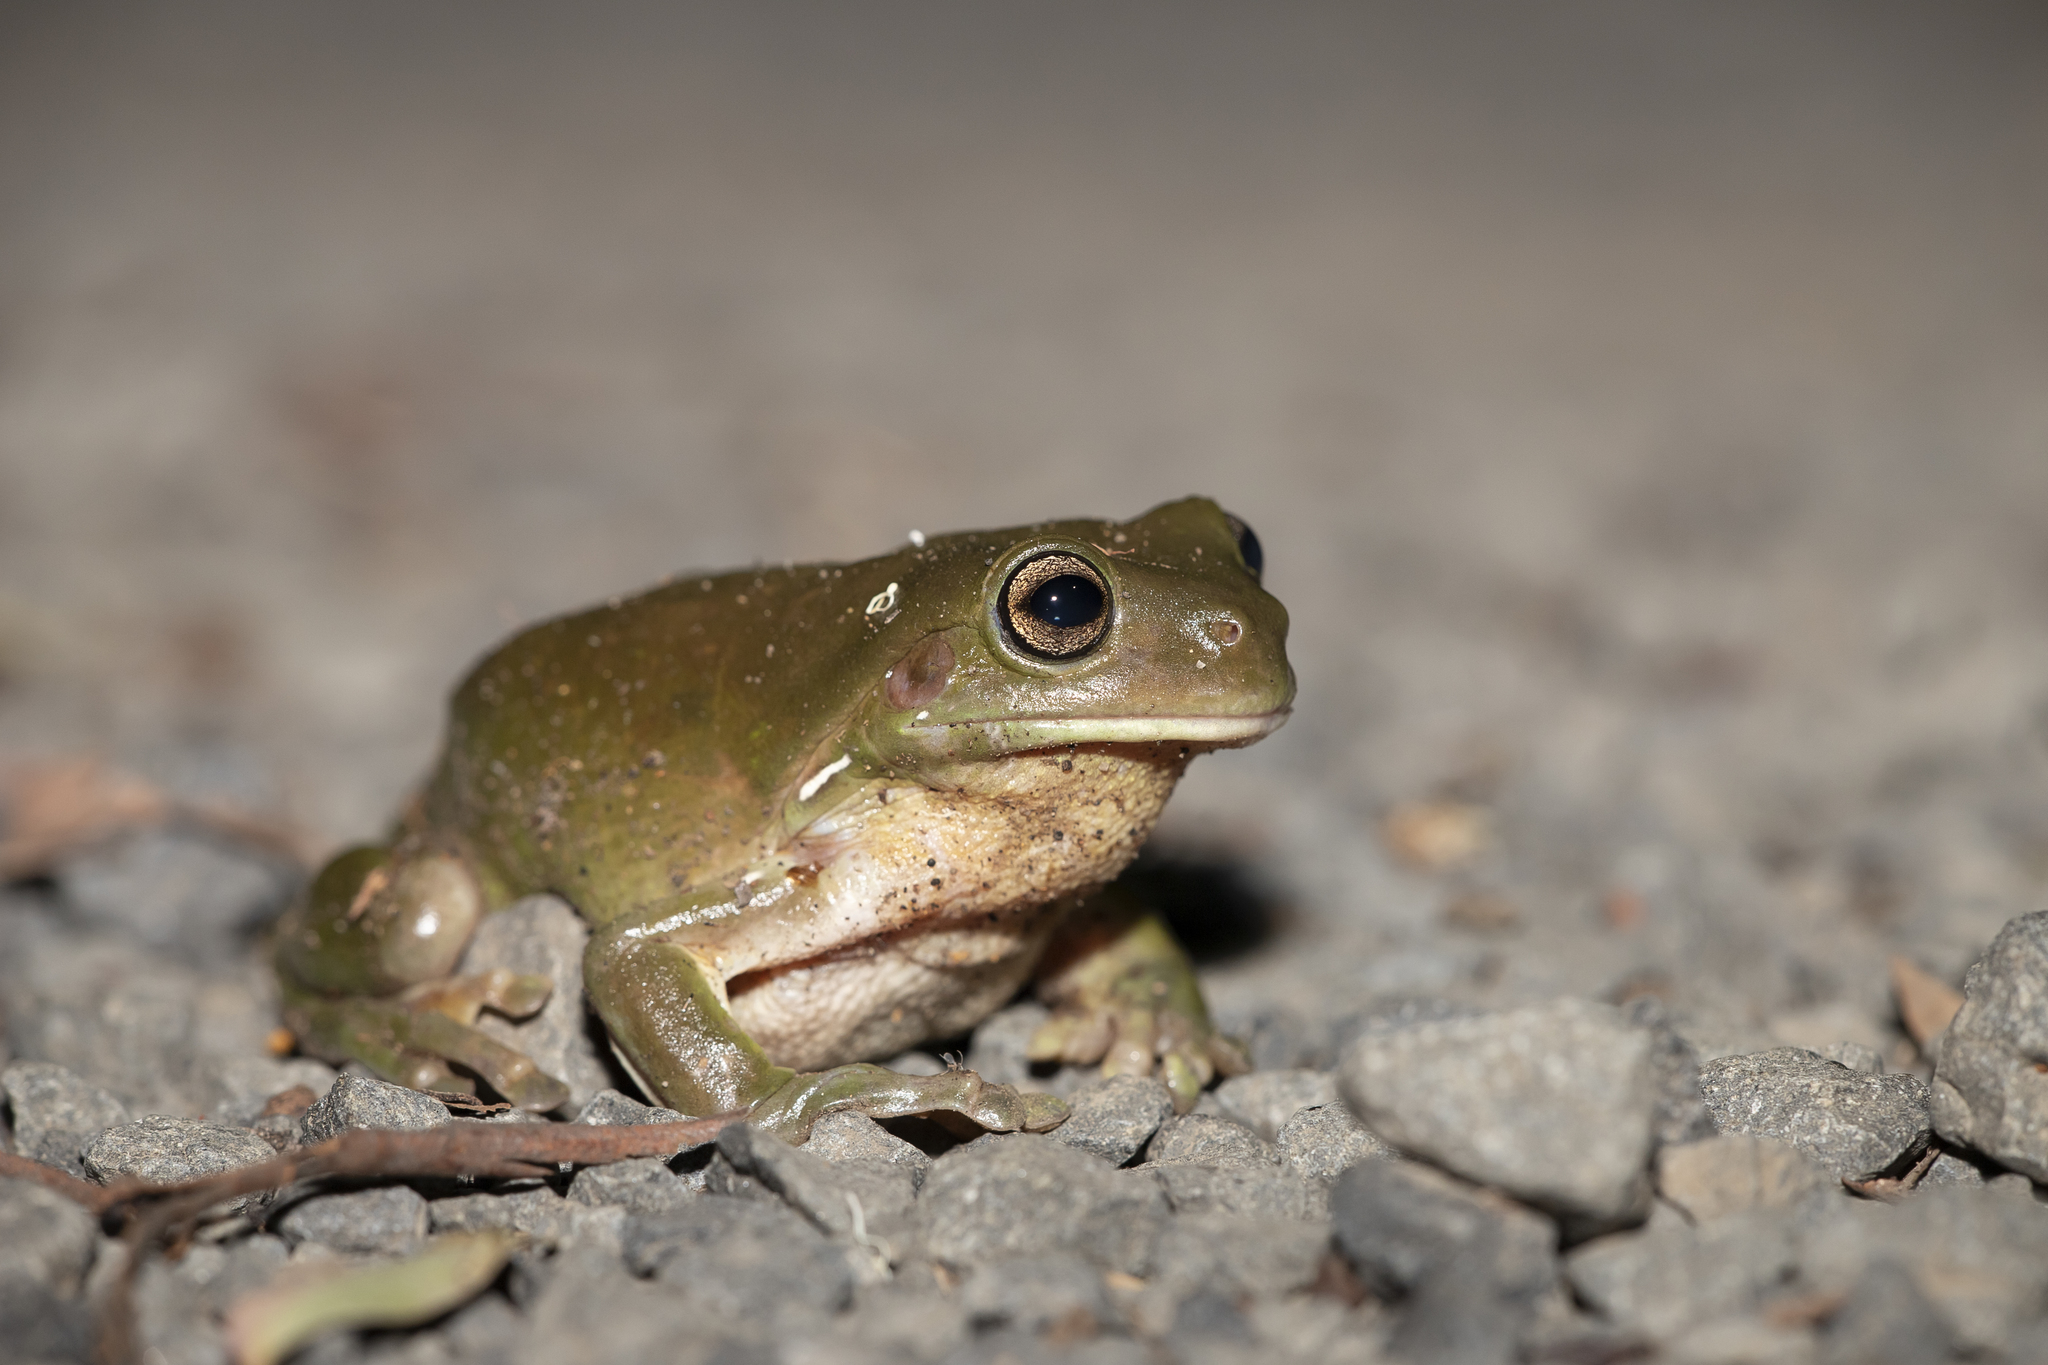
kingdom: Animalia
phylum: Chordata
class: Amphibia
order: Anura
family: Pelodryadidae
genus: Ranoidea
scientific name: Ranoidea caerulea
